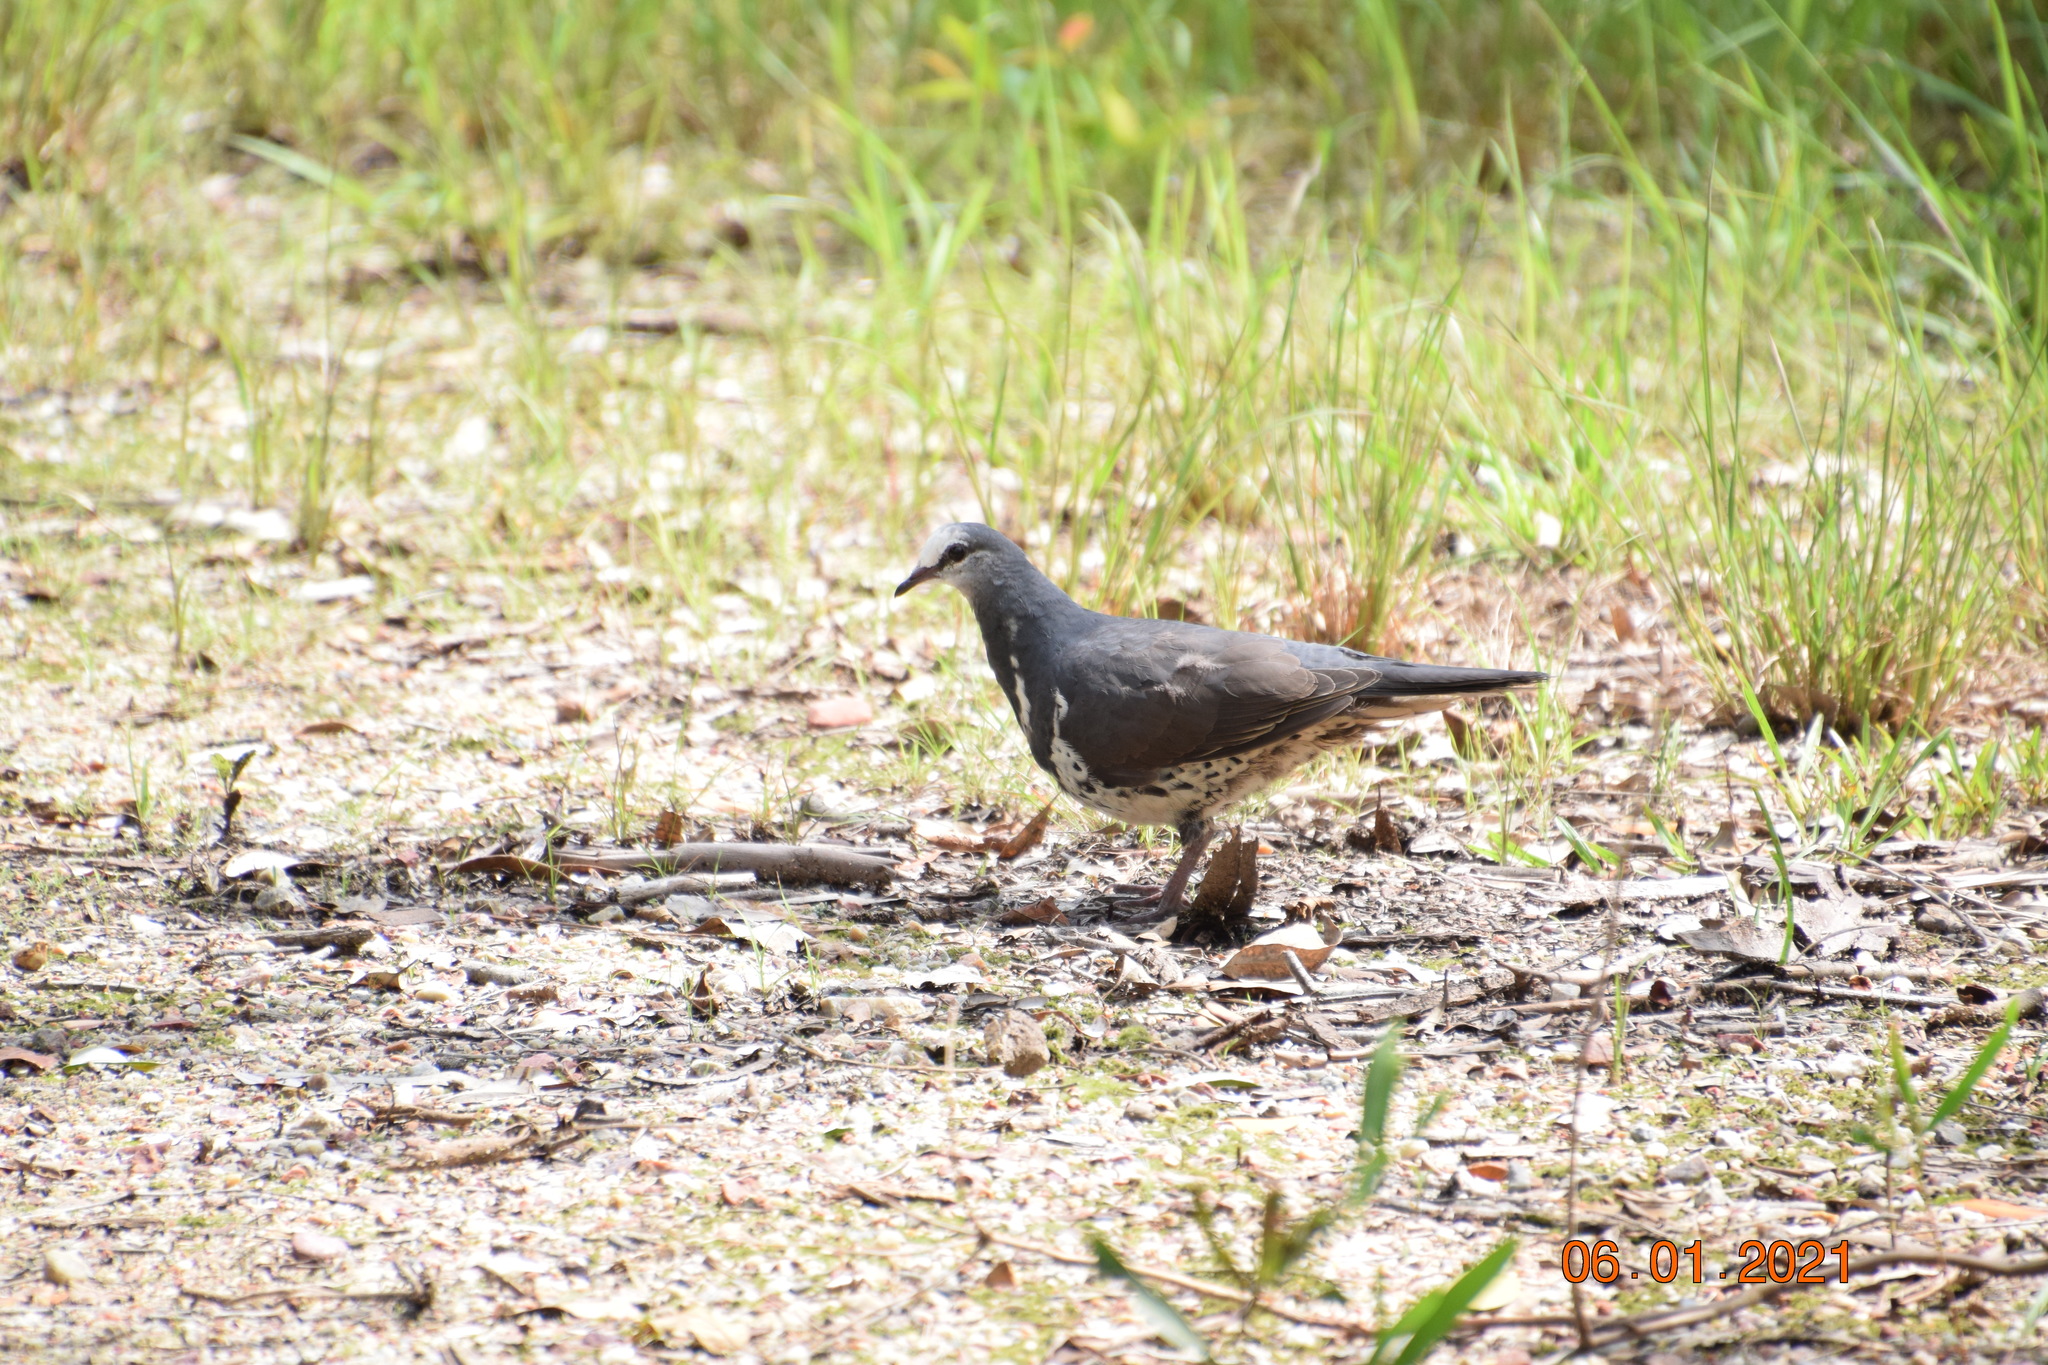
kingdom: Animalia
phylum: Chordata
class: Aves
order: Columbiformes
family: Columbidae
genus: Leucosarcia
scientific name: Leucosarcia melanoleuca
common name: Wonga pigeon
